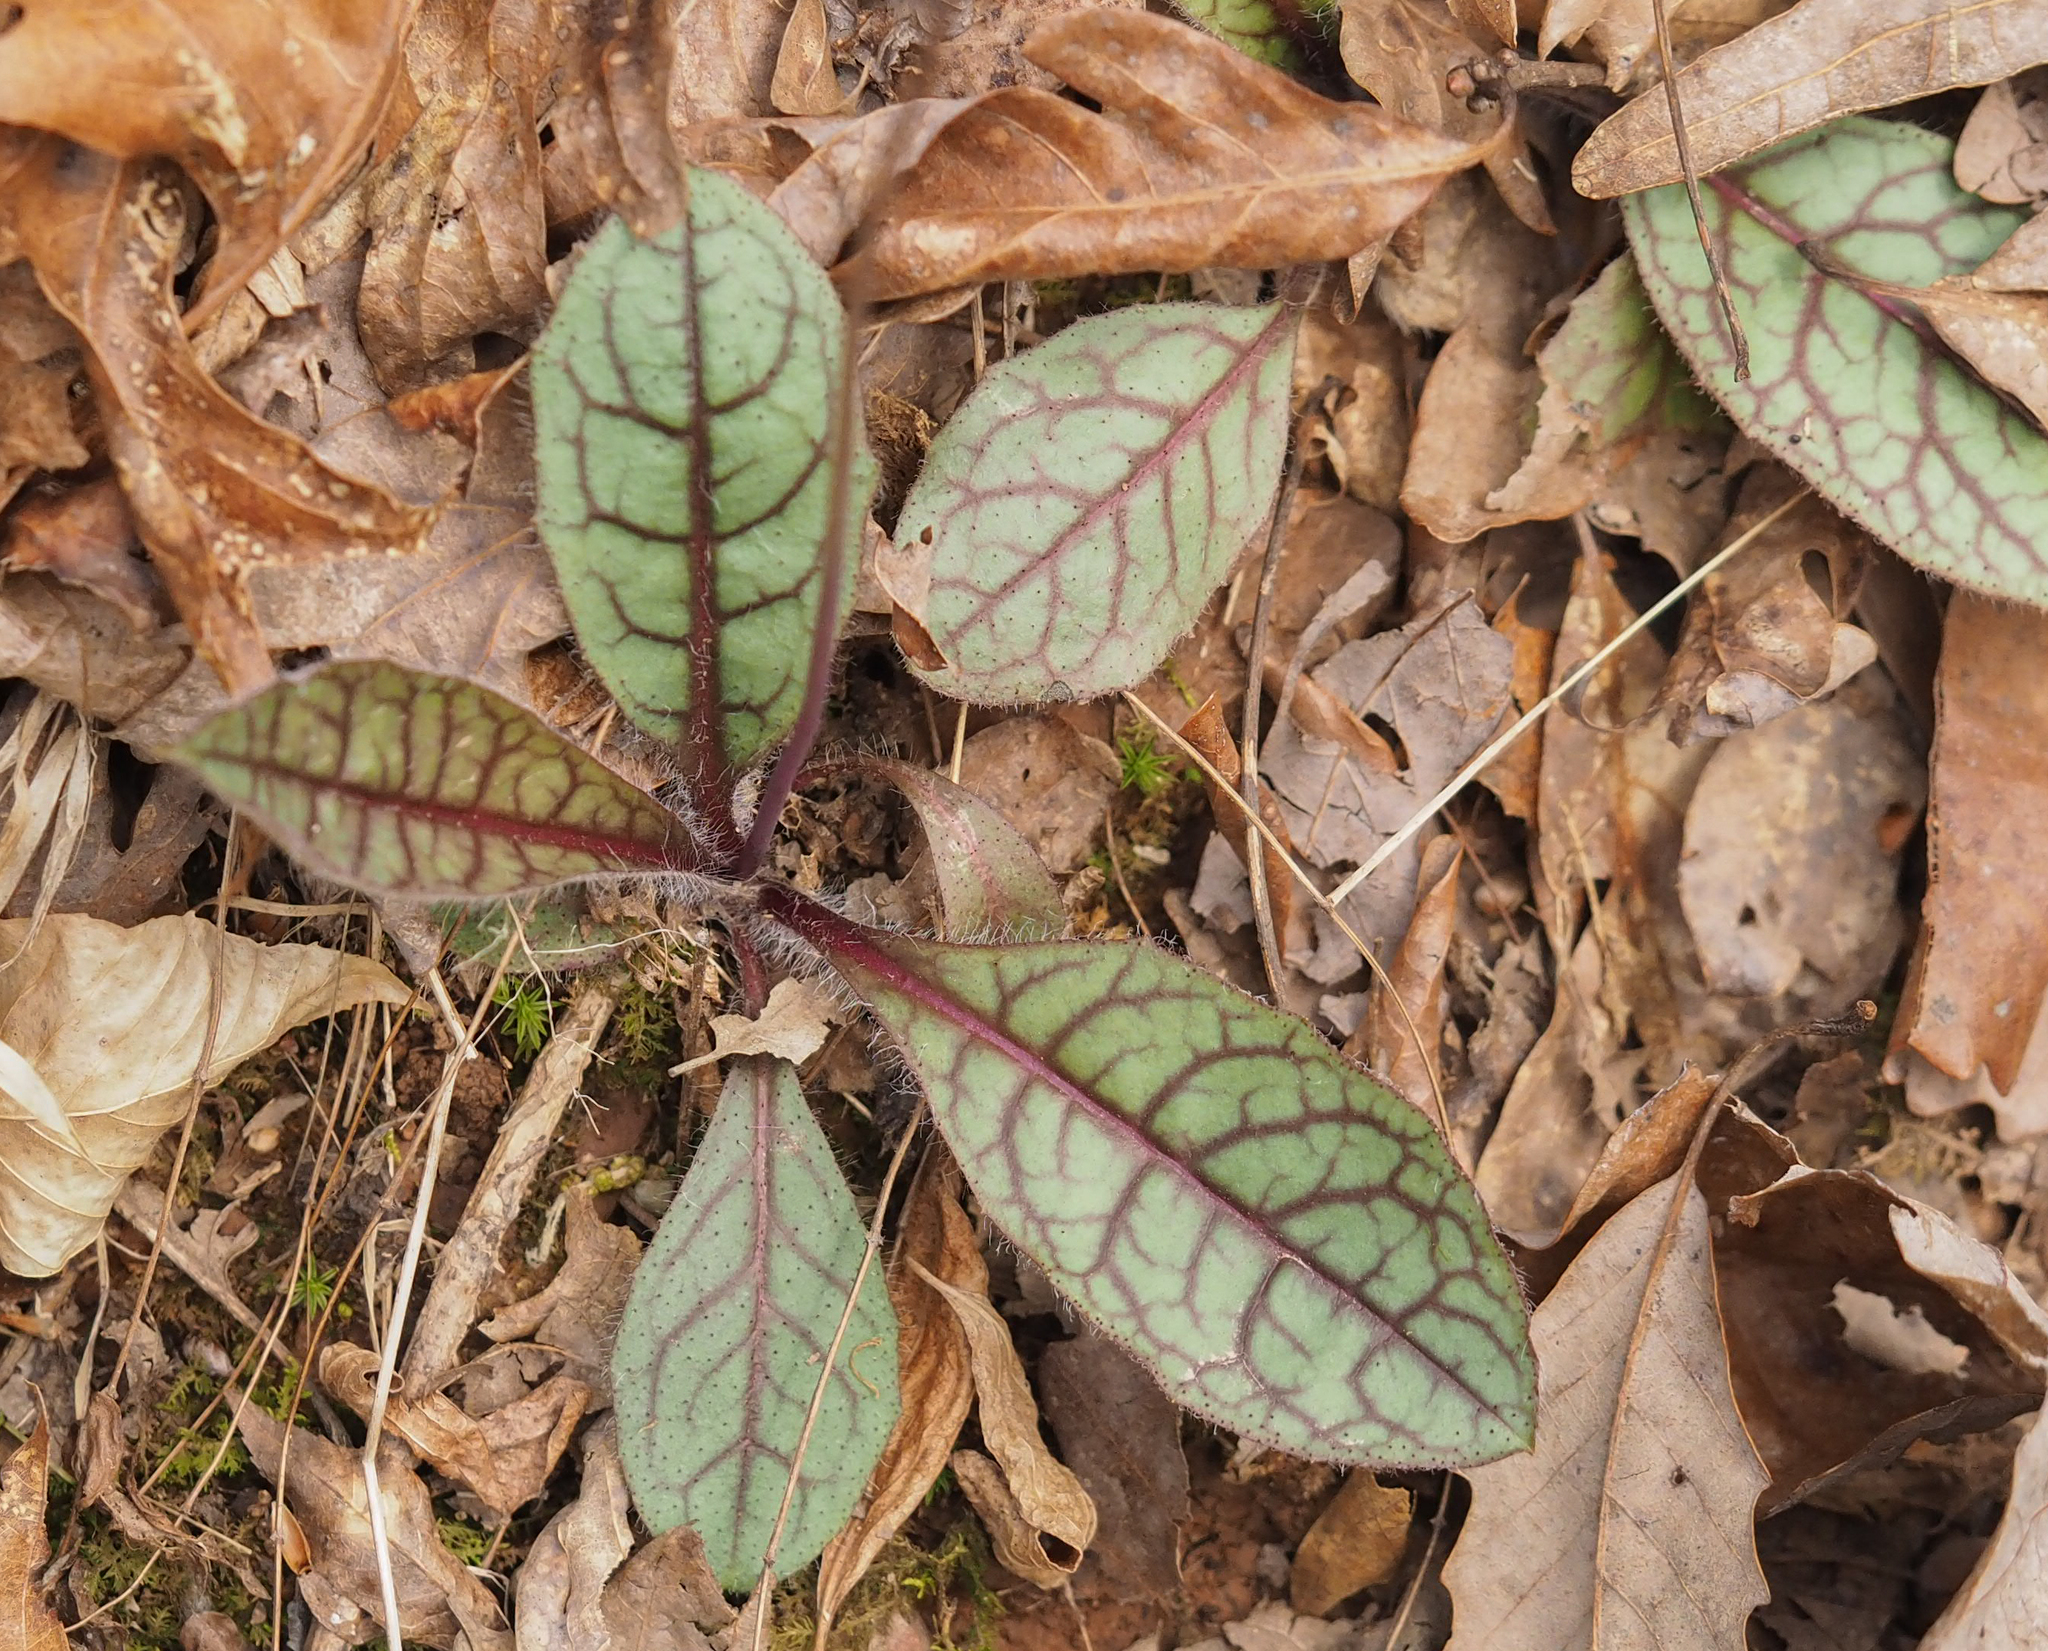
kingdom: Plantae
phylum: Tracheophyta
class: Magnoliopsida
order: Asterales
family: Asteraceae
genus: Hieracium
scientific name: Hieracium venosum
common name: Rattlesnake hawkweed
